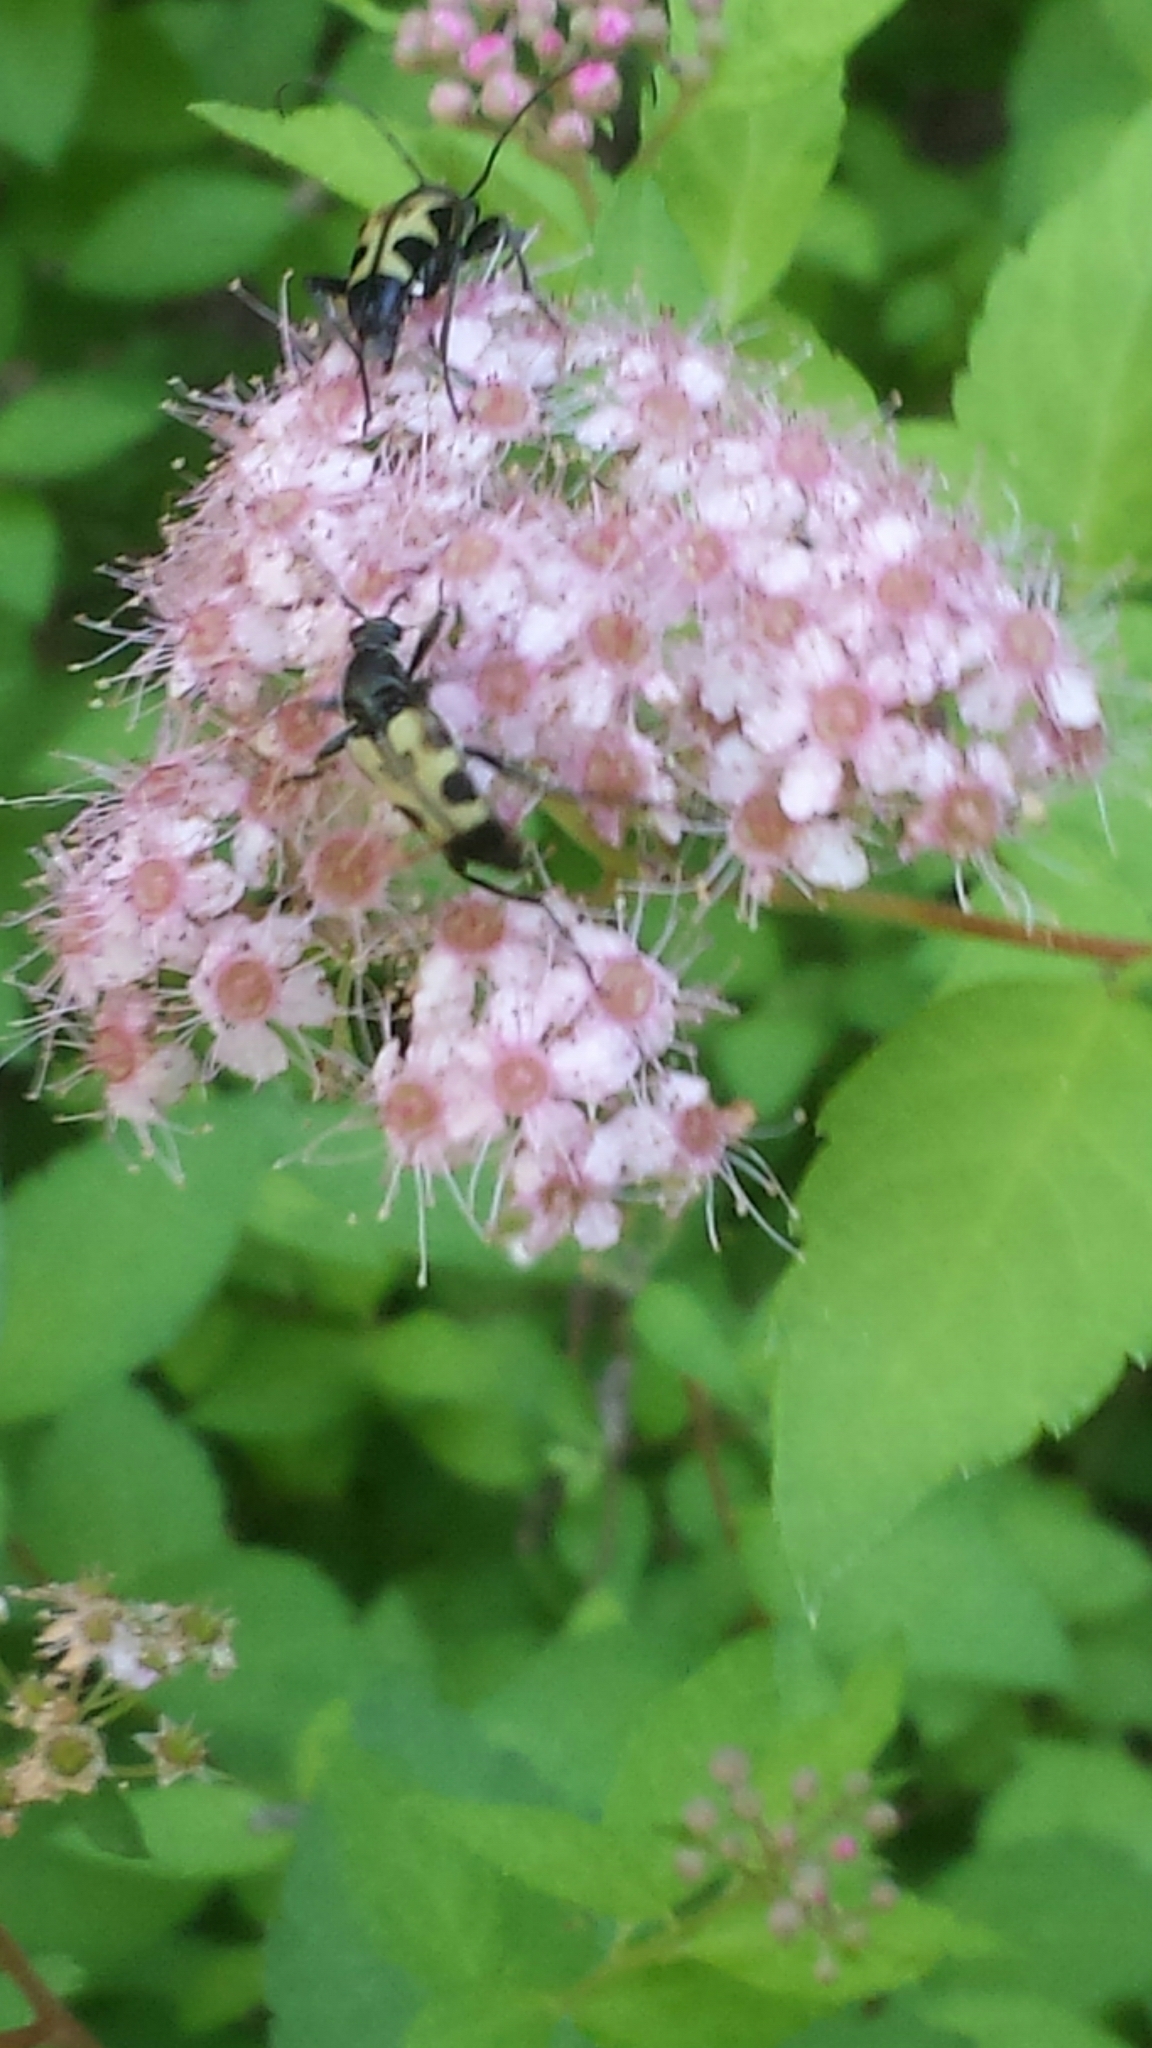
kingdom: Animalia
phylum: Arthropoda
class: Insecta
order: Coleoptera
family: Cerambycidae
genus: Judolia
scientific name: Judolia cordifera
